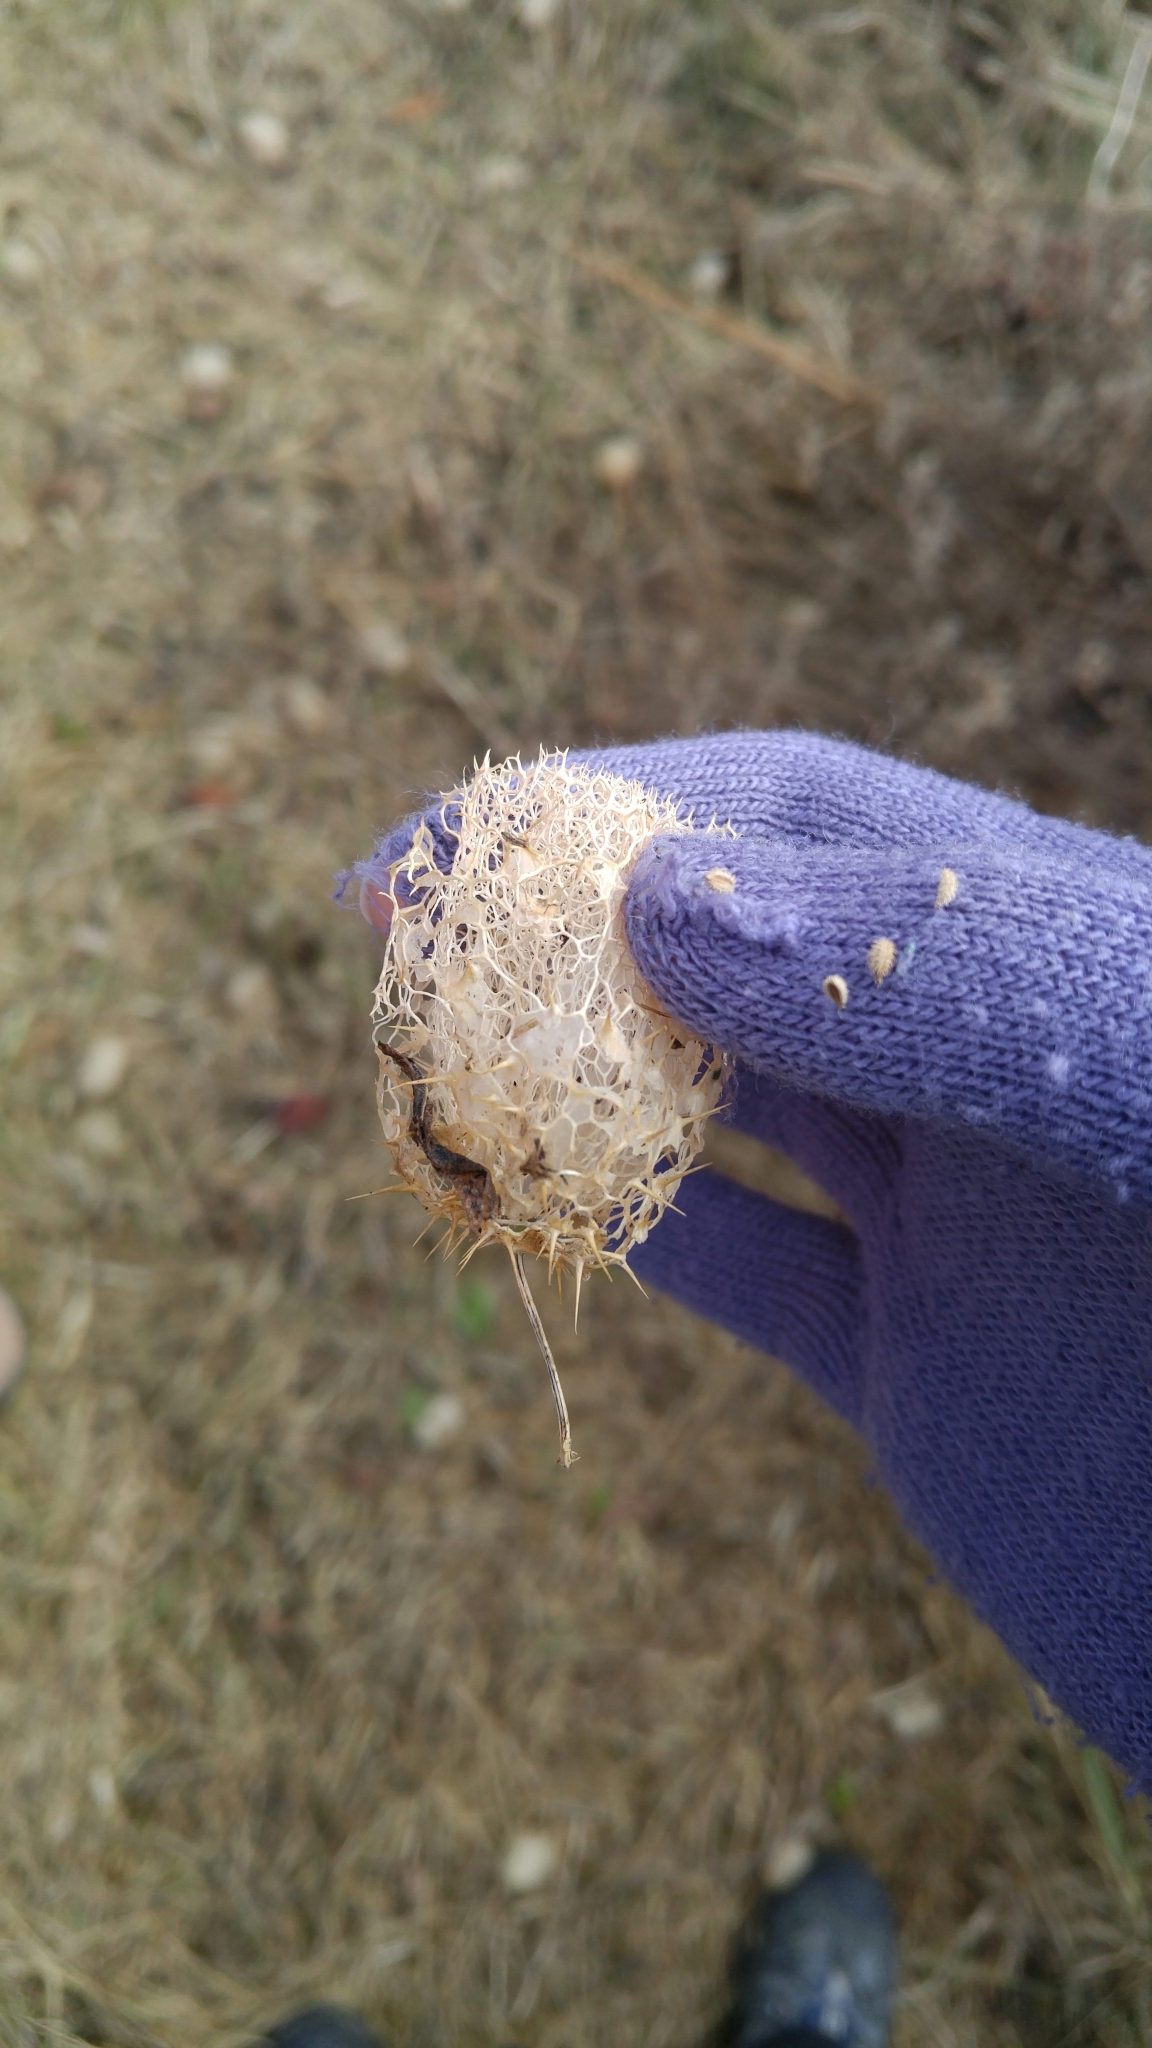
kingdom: Plantae
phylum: Tracheophyta
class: Magnoliopsida
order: Cucurbitales
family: Cucurbitaceae
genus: Echinocystis
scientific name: Echinocystis lobata
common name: Wild cucumber
